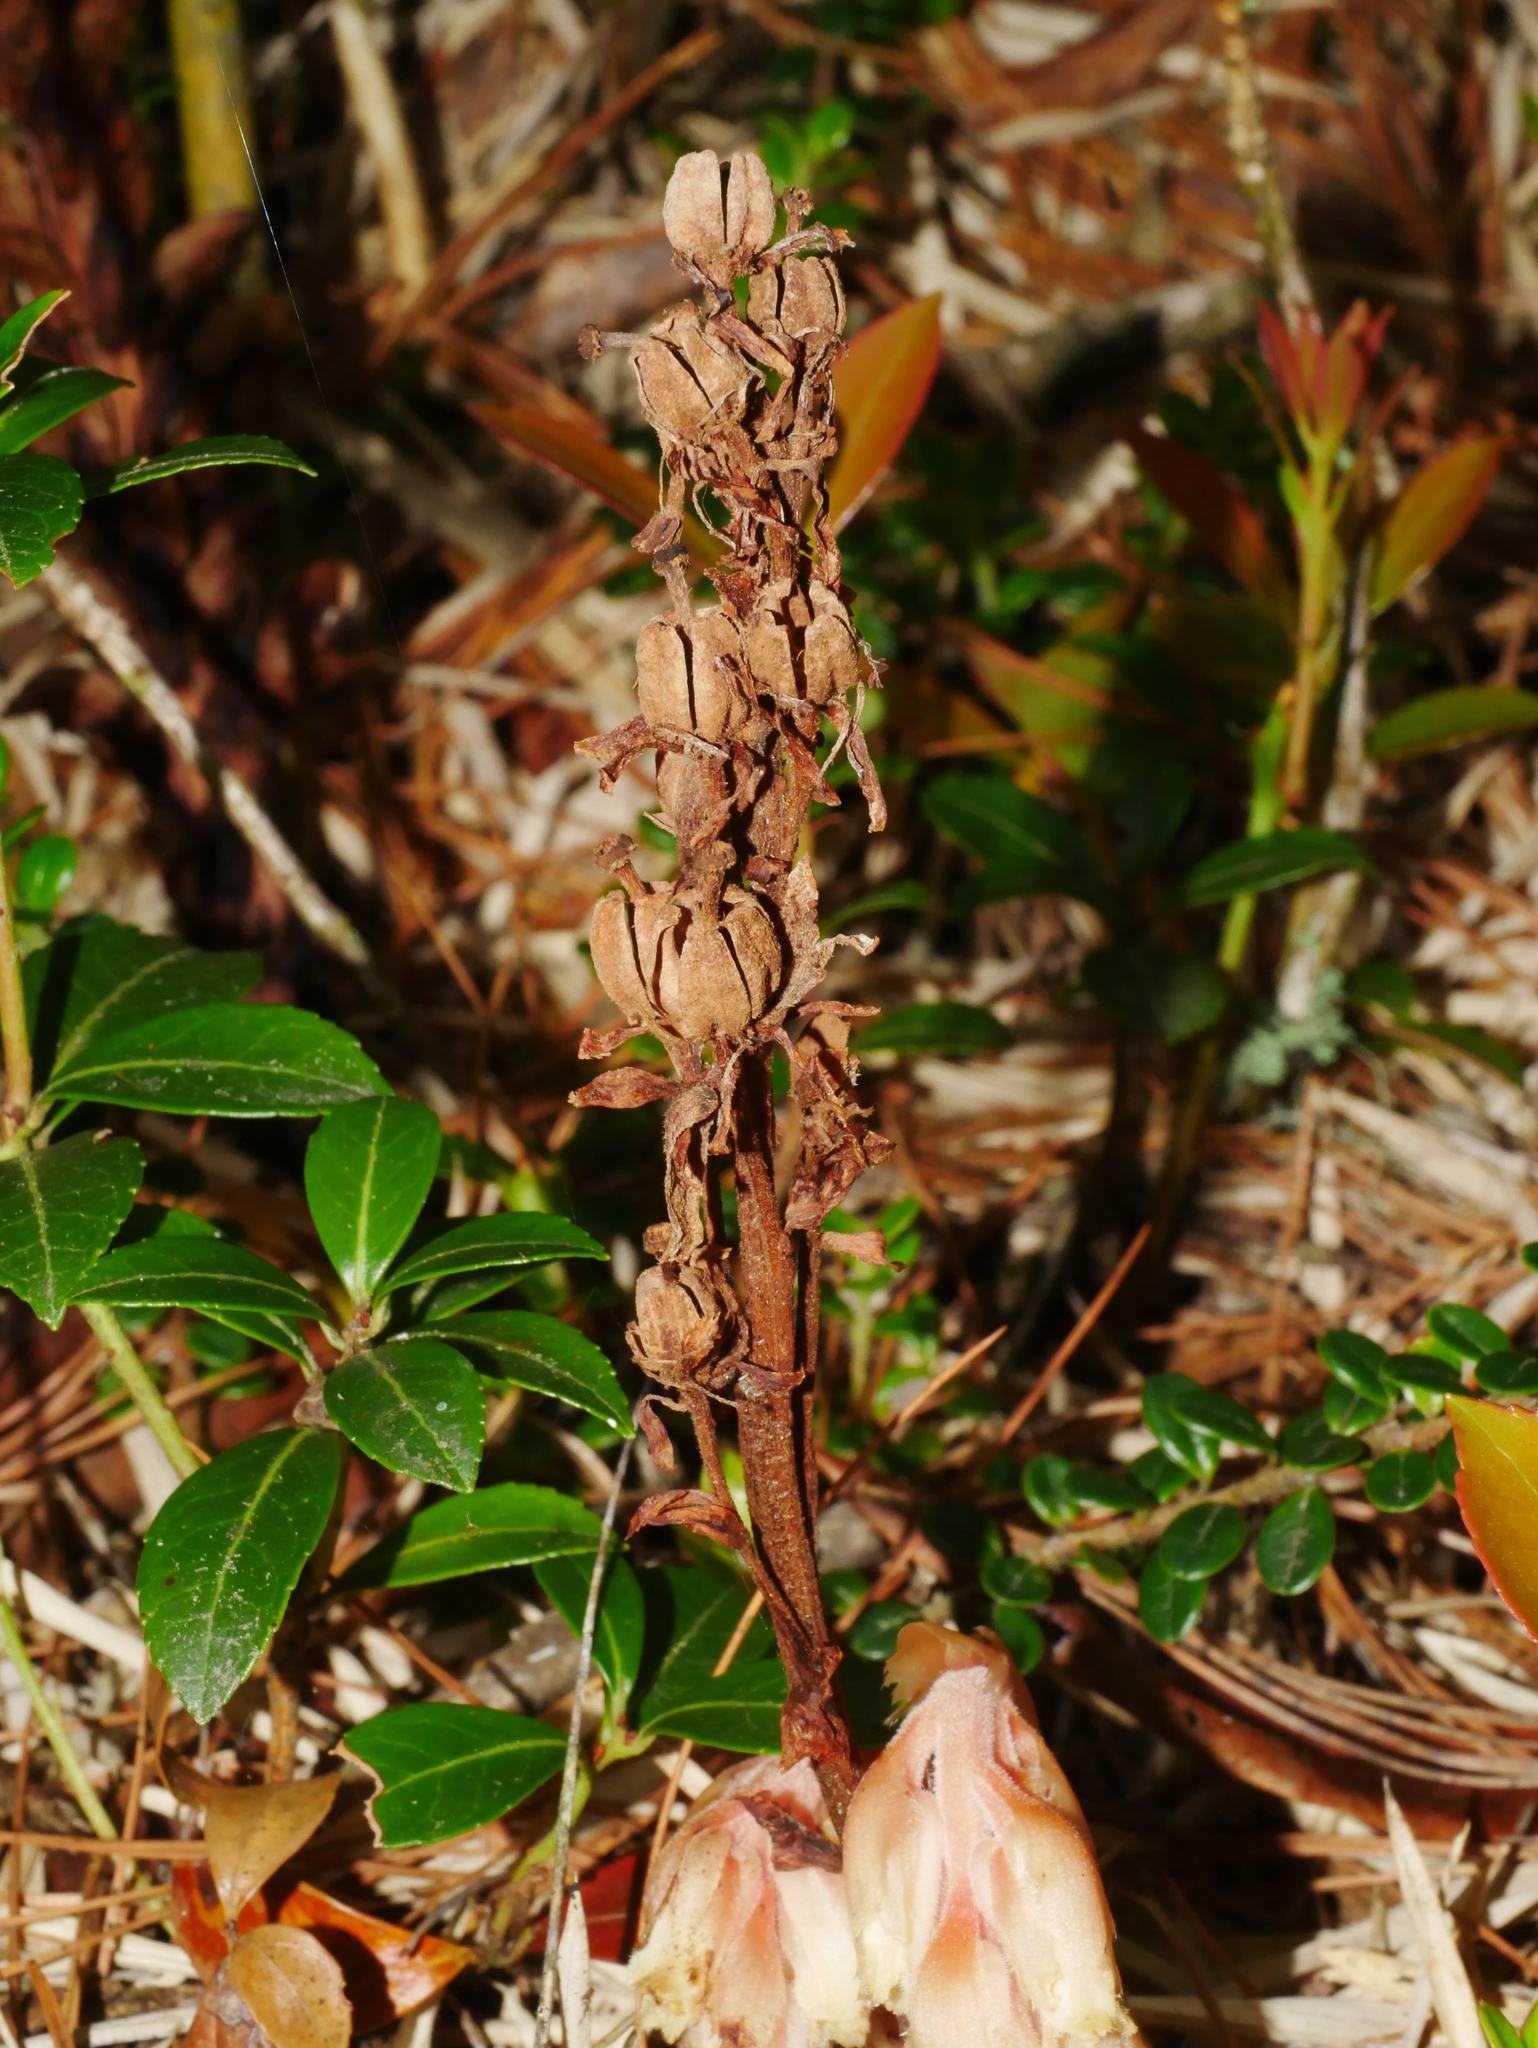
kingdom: Plantae
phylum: Tracheophyta
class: Magnoliopsida
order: Ericales
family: Ericaceae
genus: Hypopitys
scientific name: Hypopitys monotropa
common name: Yellow bird's-nest
